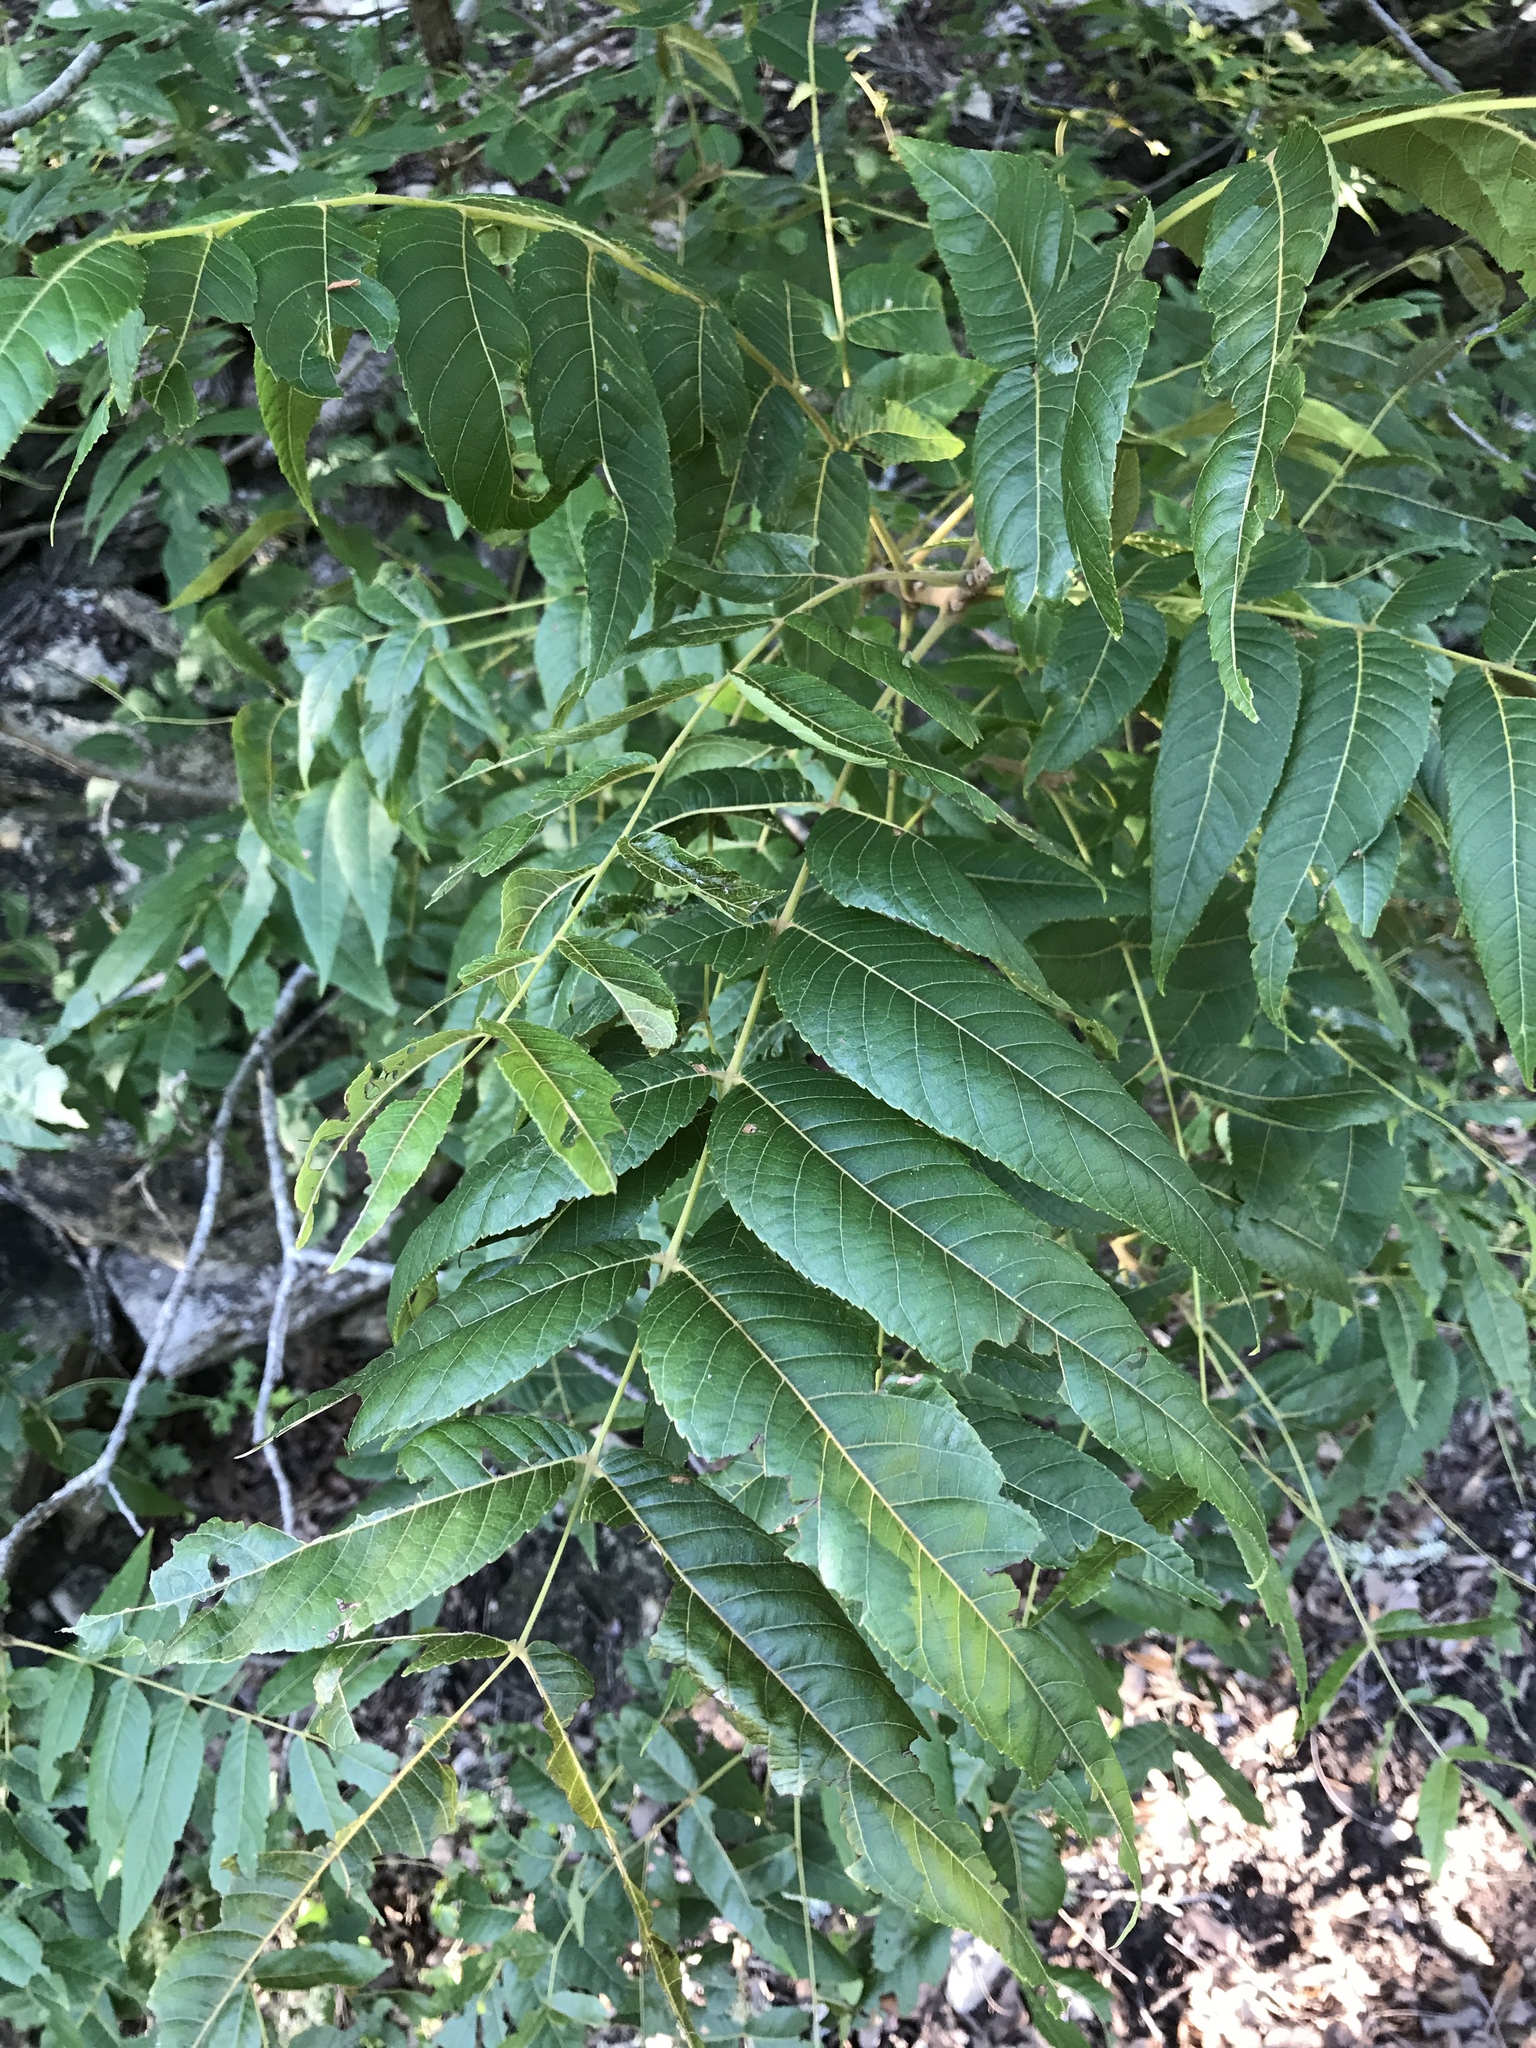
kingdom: Plantae
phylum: Tracheophyta
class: Magnoliopsida
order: Fagales
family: Juglandaceae
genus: Juglans
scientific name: Juglans major
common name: Arizona walnut
